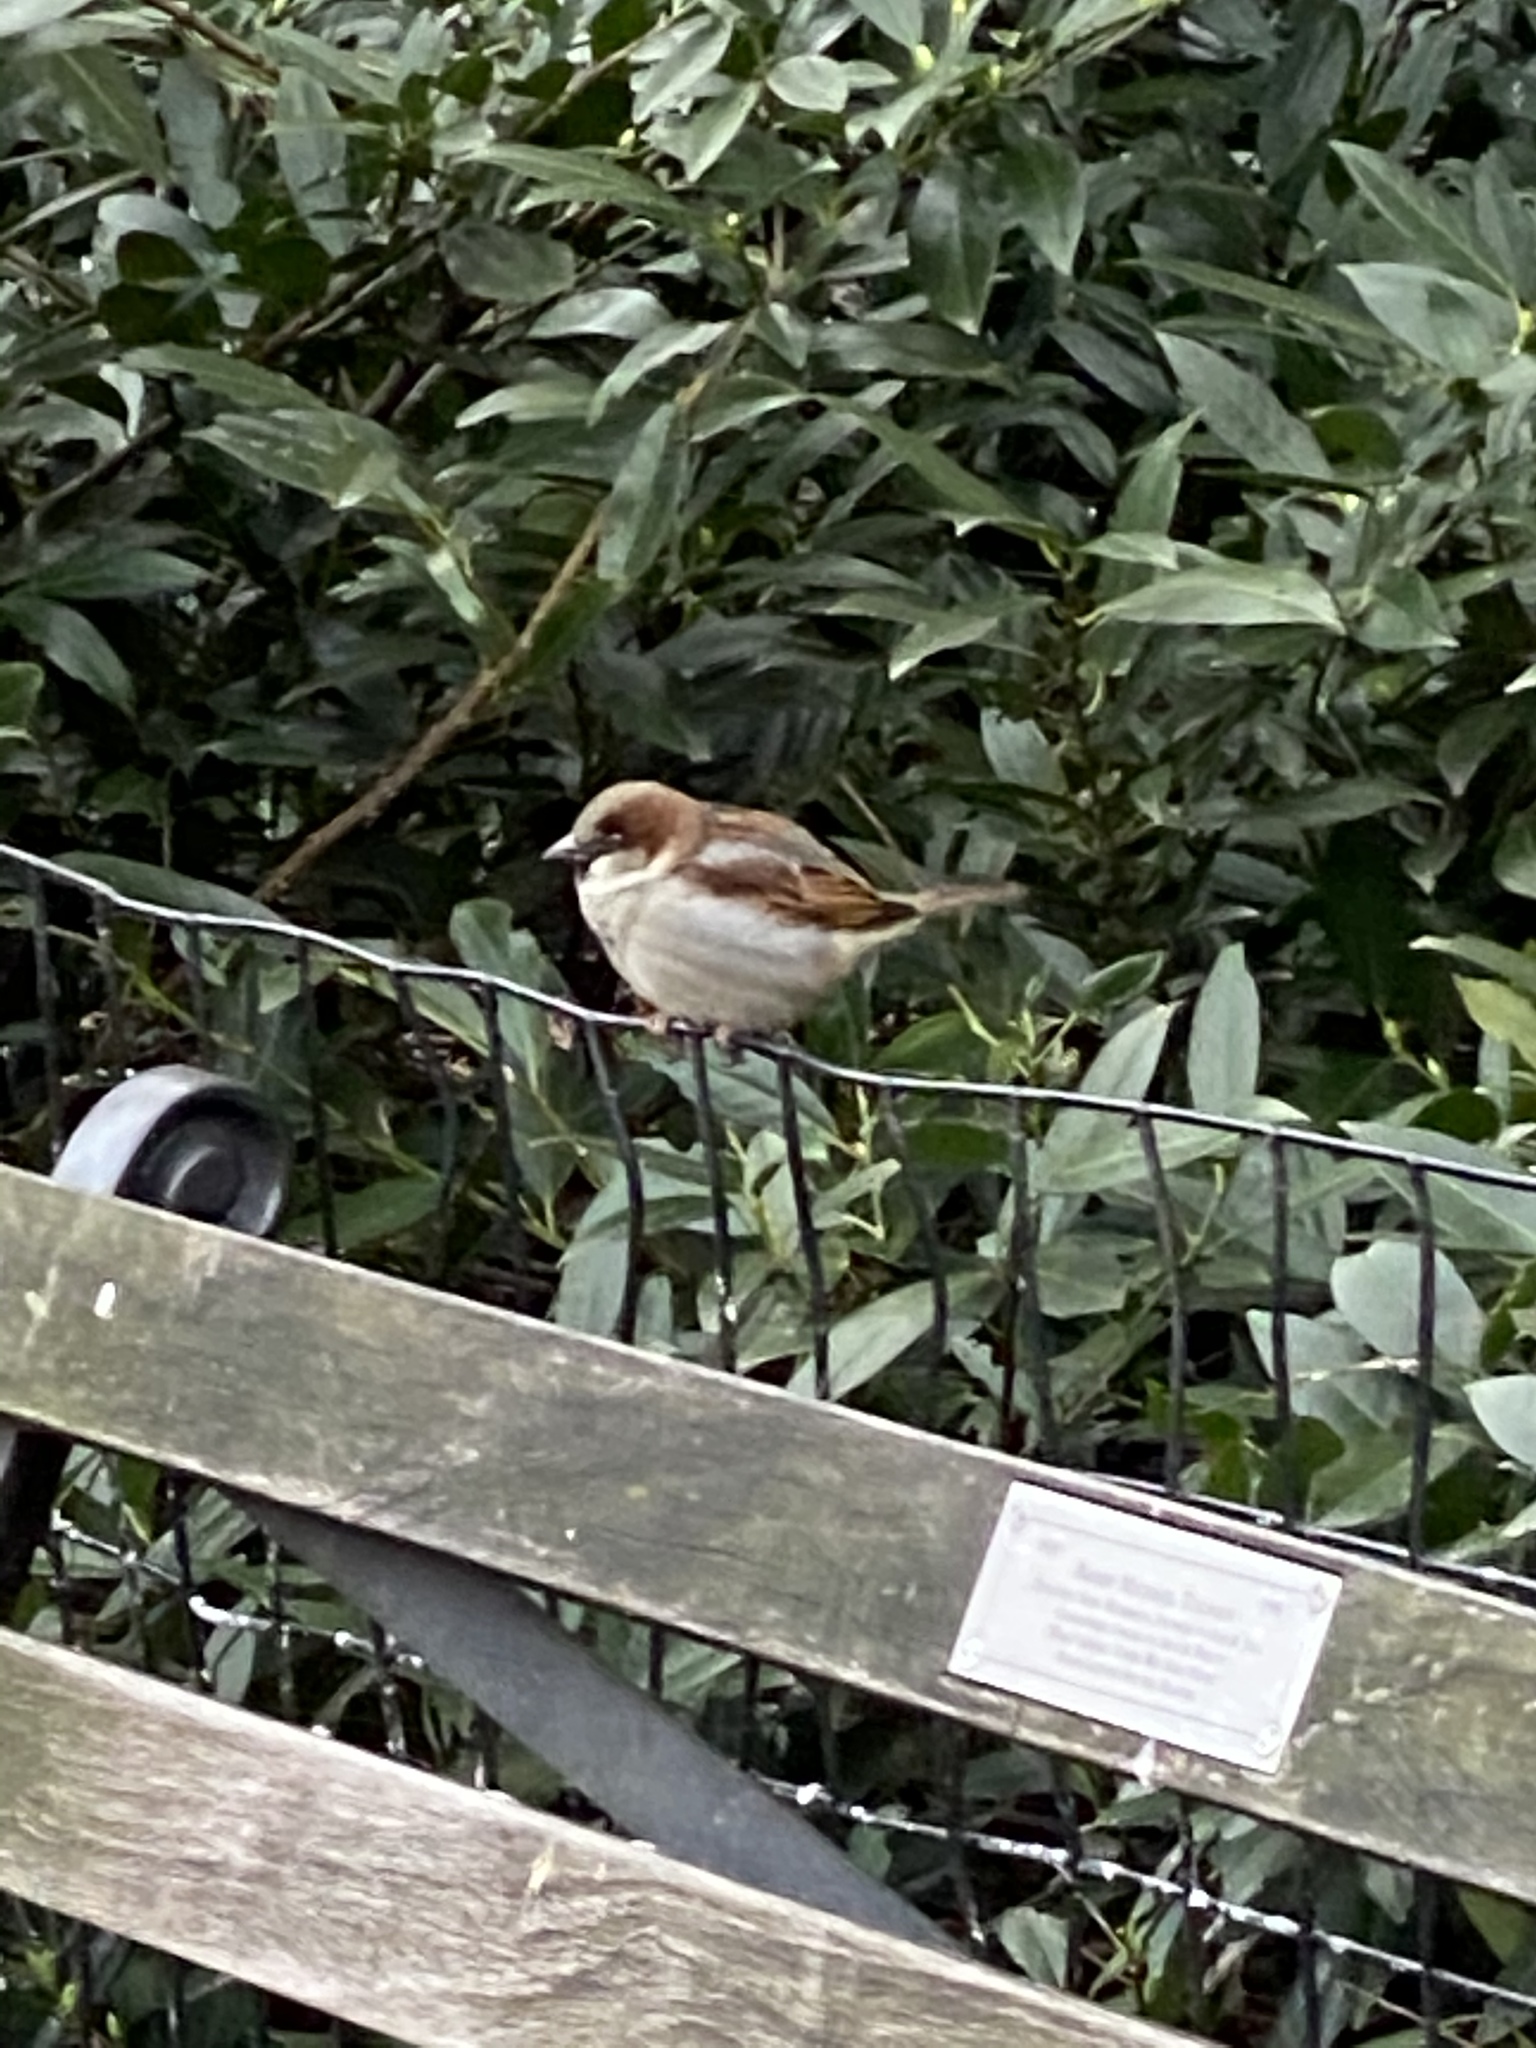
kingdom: Animalia
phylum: Chordata
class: Aves
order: Passeriformes
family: Passeridae
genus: Passer
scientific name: Passer domesticus
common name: House sparrow
